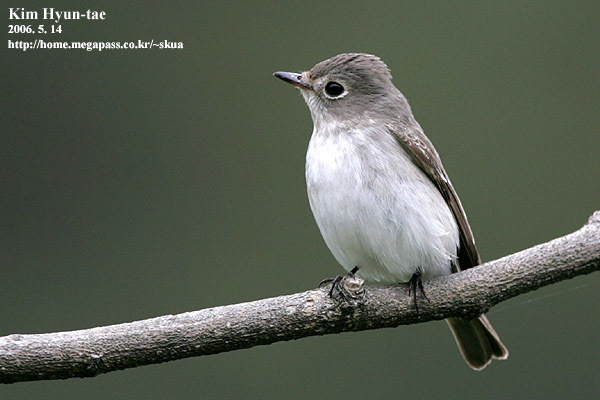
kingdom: Animalia
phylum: Chordata
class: Aves
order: Passeriformes
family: Muscicapidae
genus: Muscicapa
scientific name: Muscicapa latirostris
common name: Asian brown flycatcher
